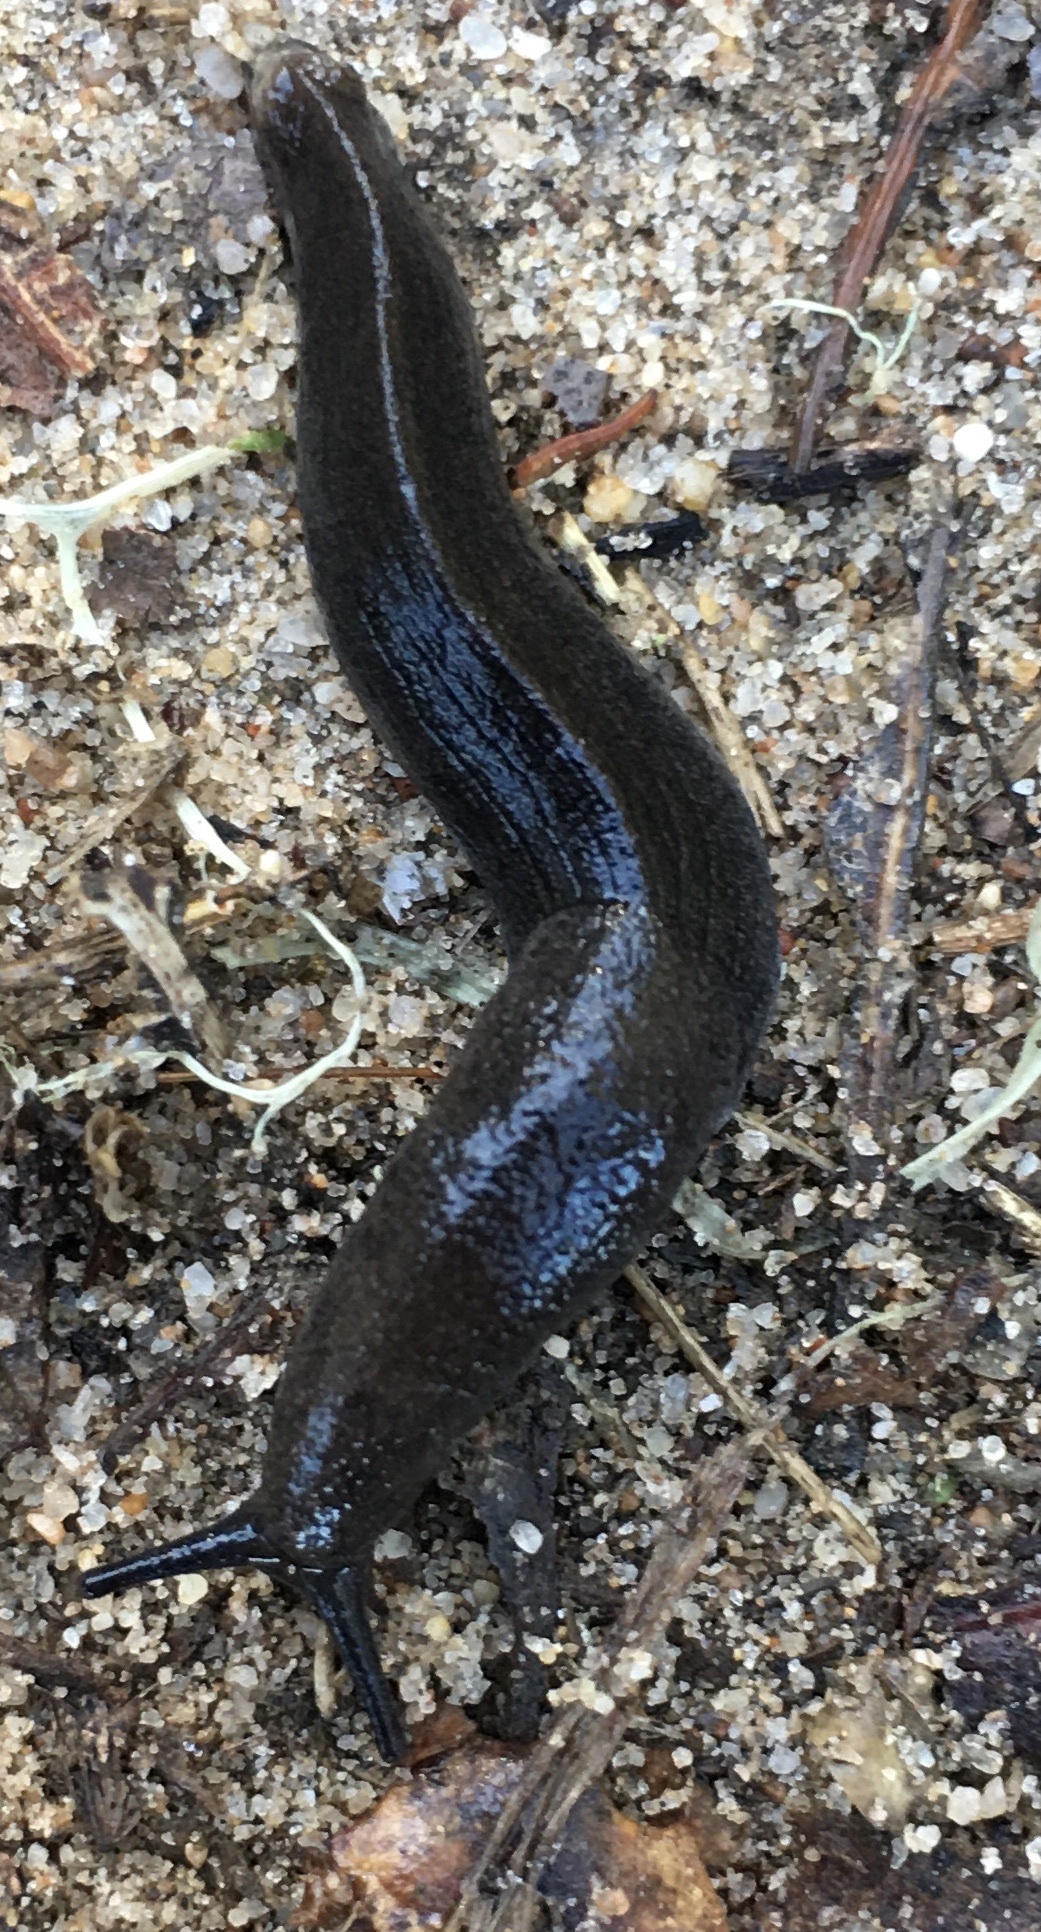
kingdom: Animalia
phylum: Mollusca
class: Gastropoda
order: Stylommatophora
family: Ariolimacidae
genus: Hesperarion
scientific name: Hesperarion niger
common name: Black western slug
